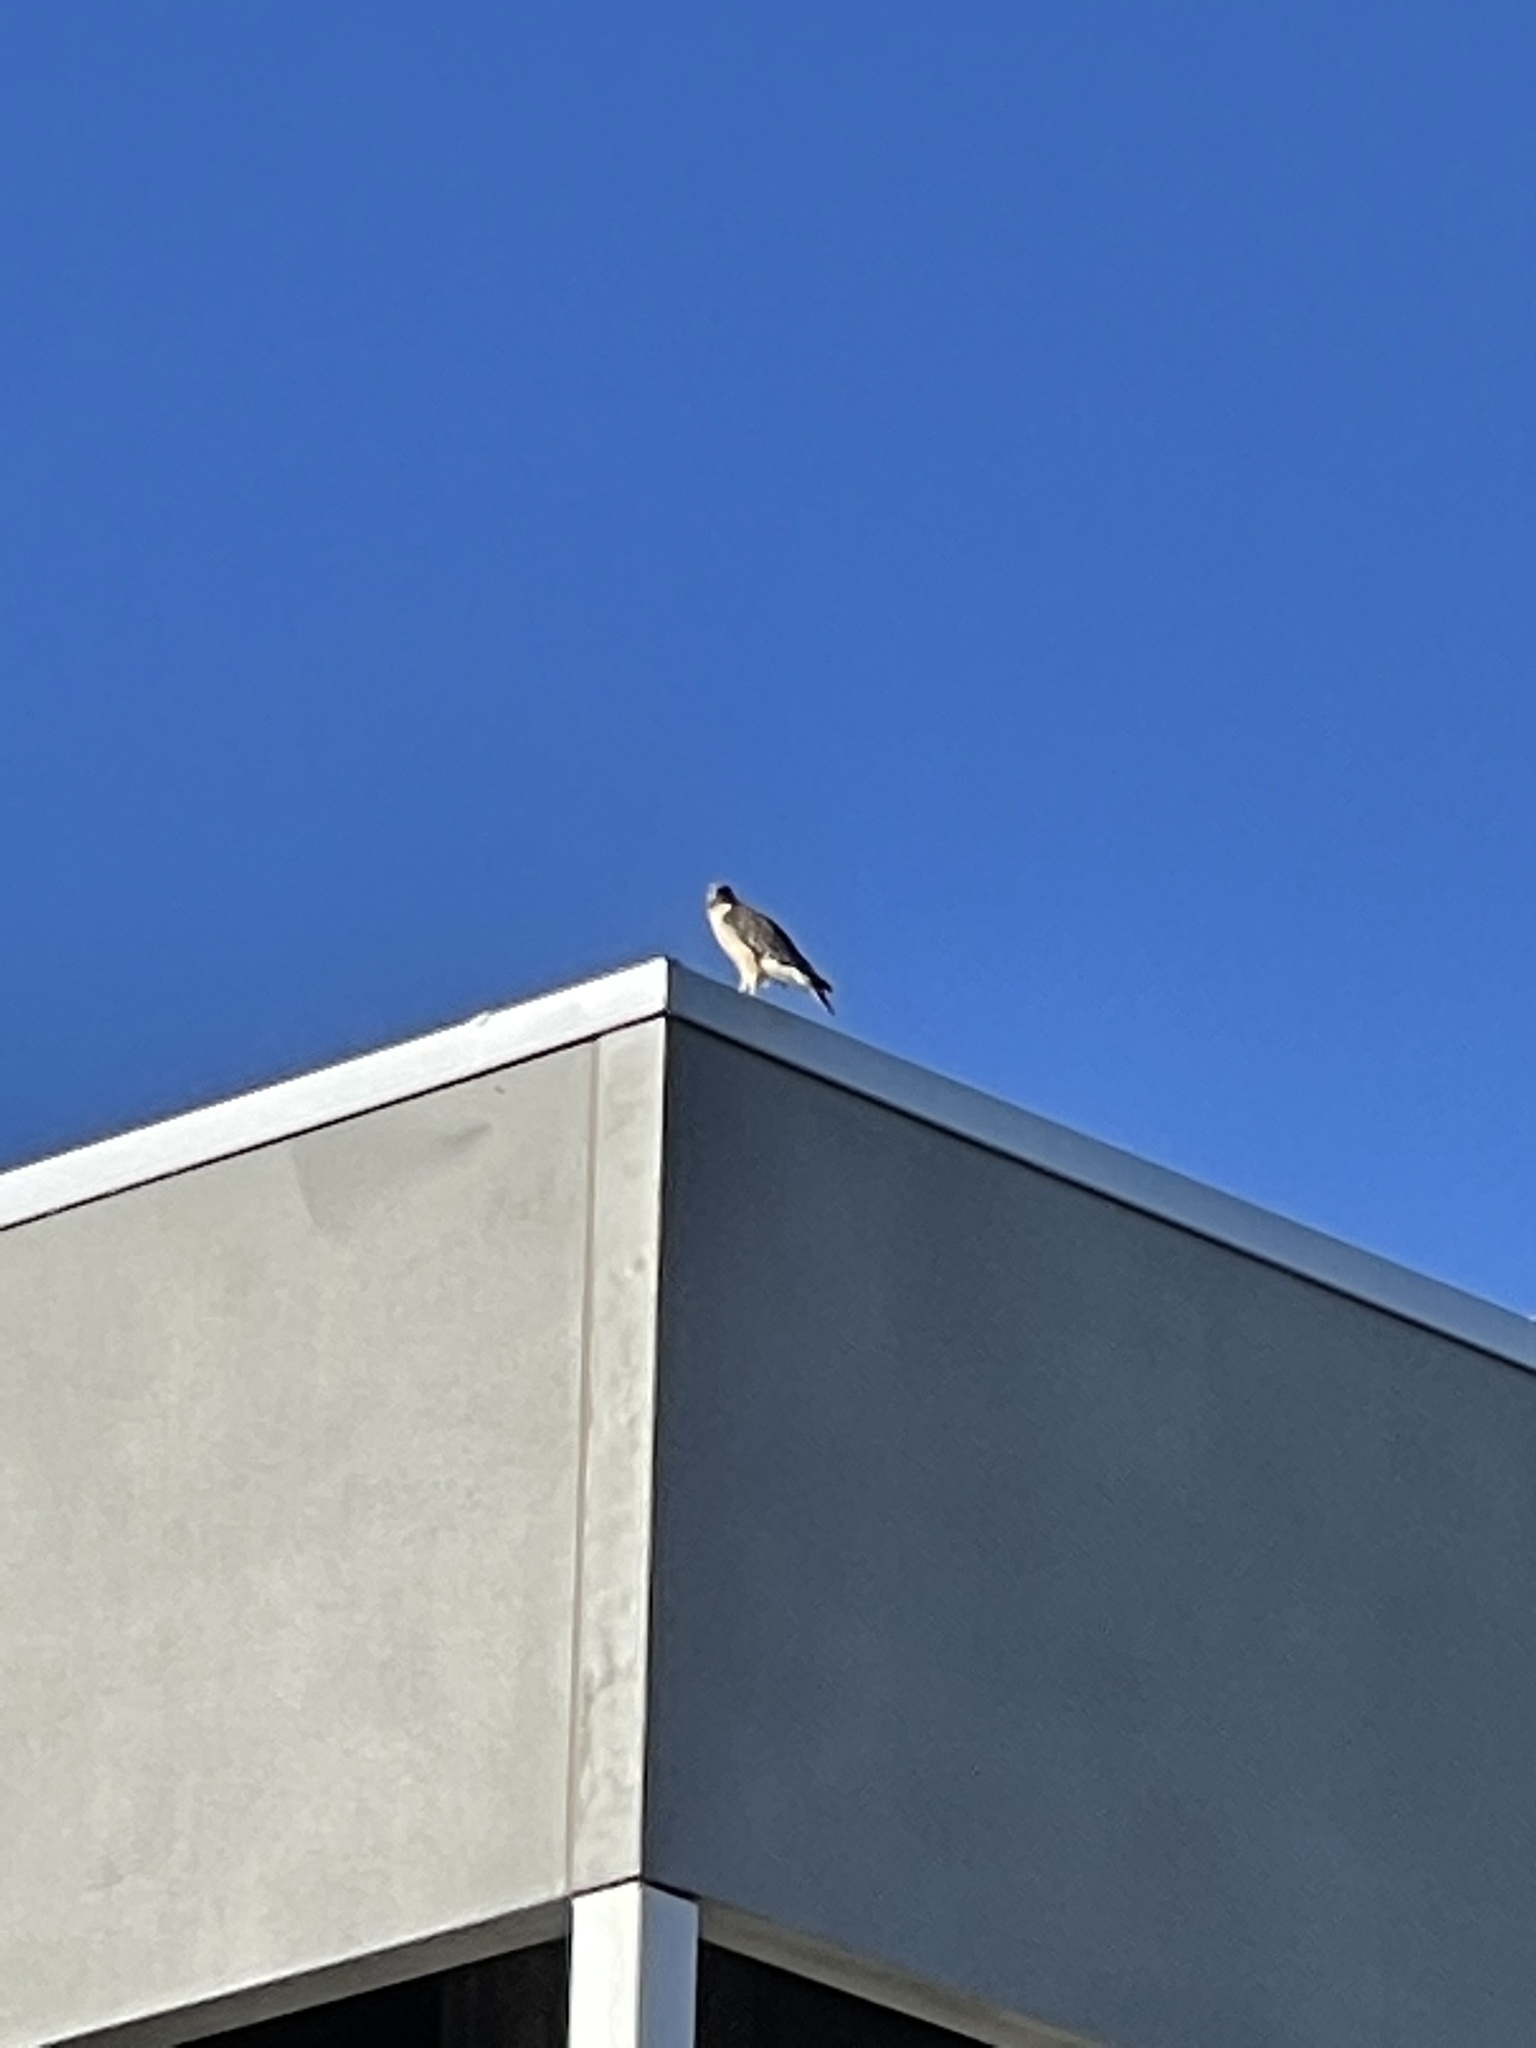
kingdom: Animalia
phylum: Chordata
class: Aves
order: Accipitriformes
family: Accipitridae
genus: Buteo
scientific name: Buteo jamaicensis
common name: Red-tailed hawk
